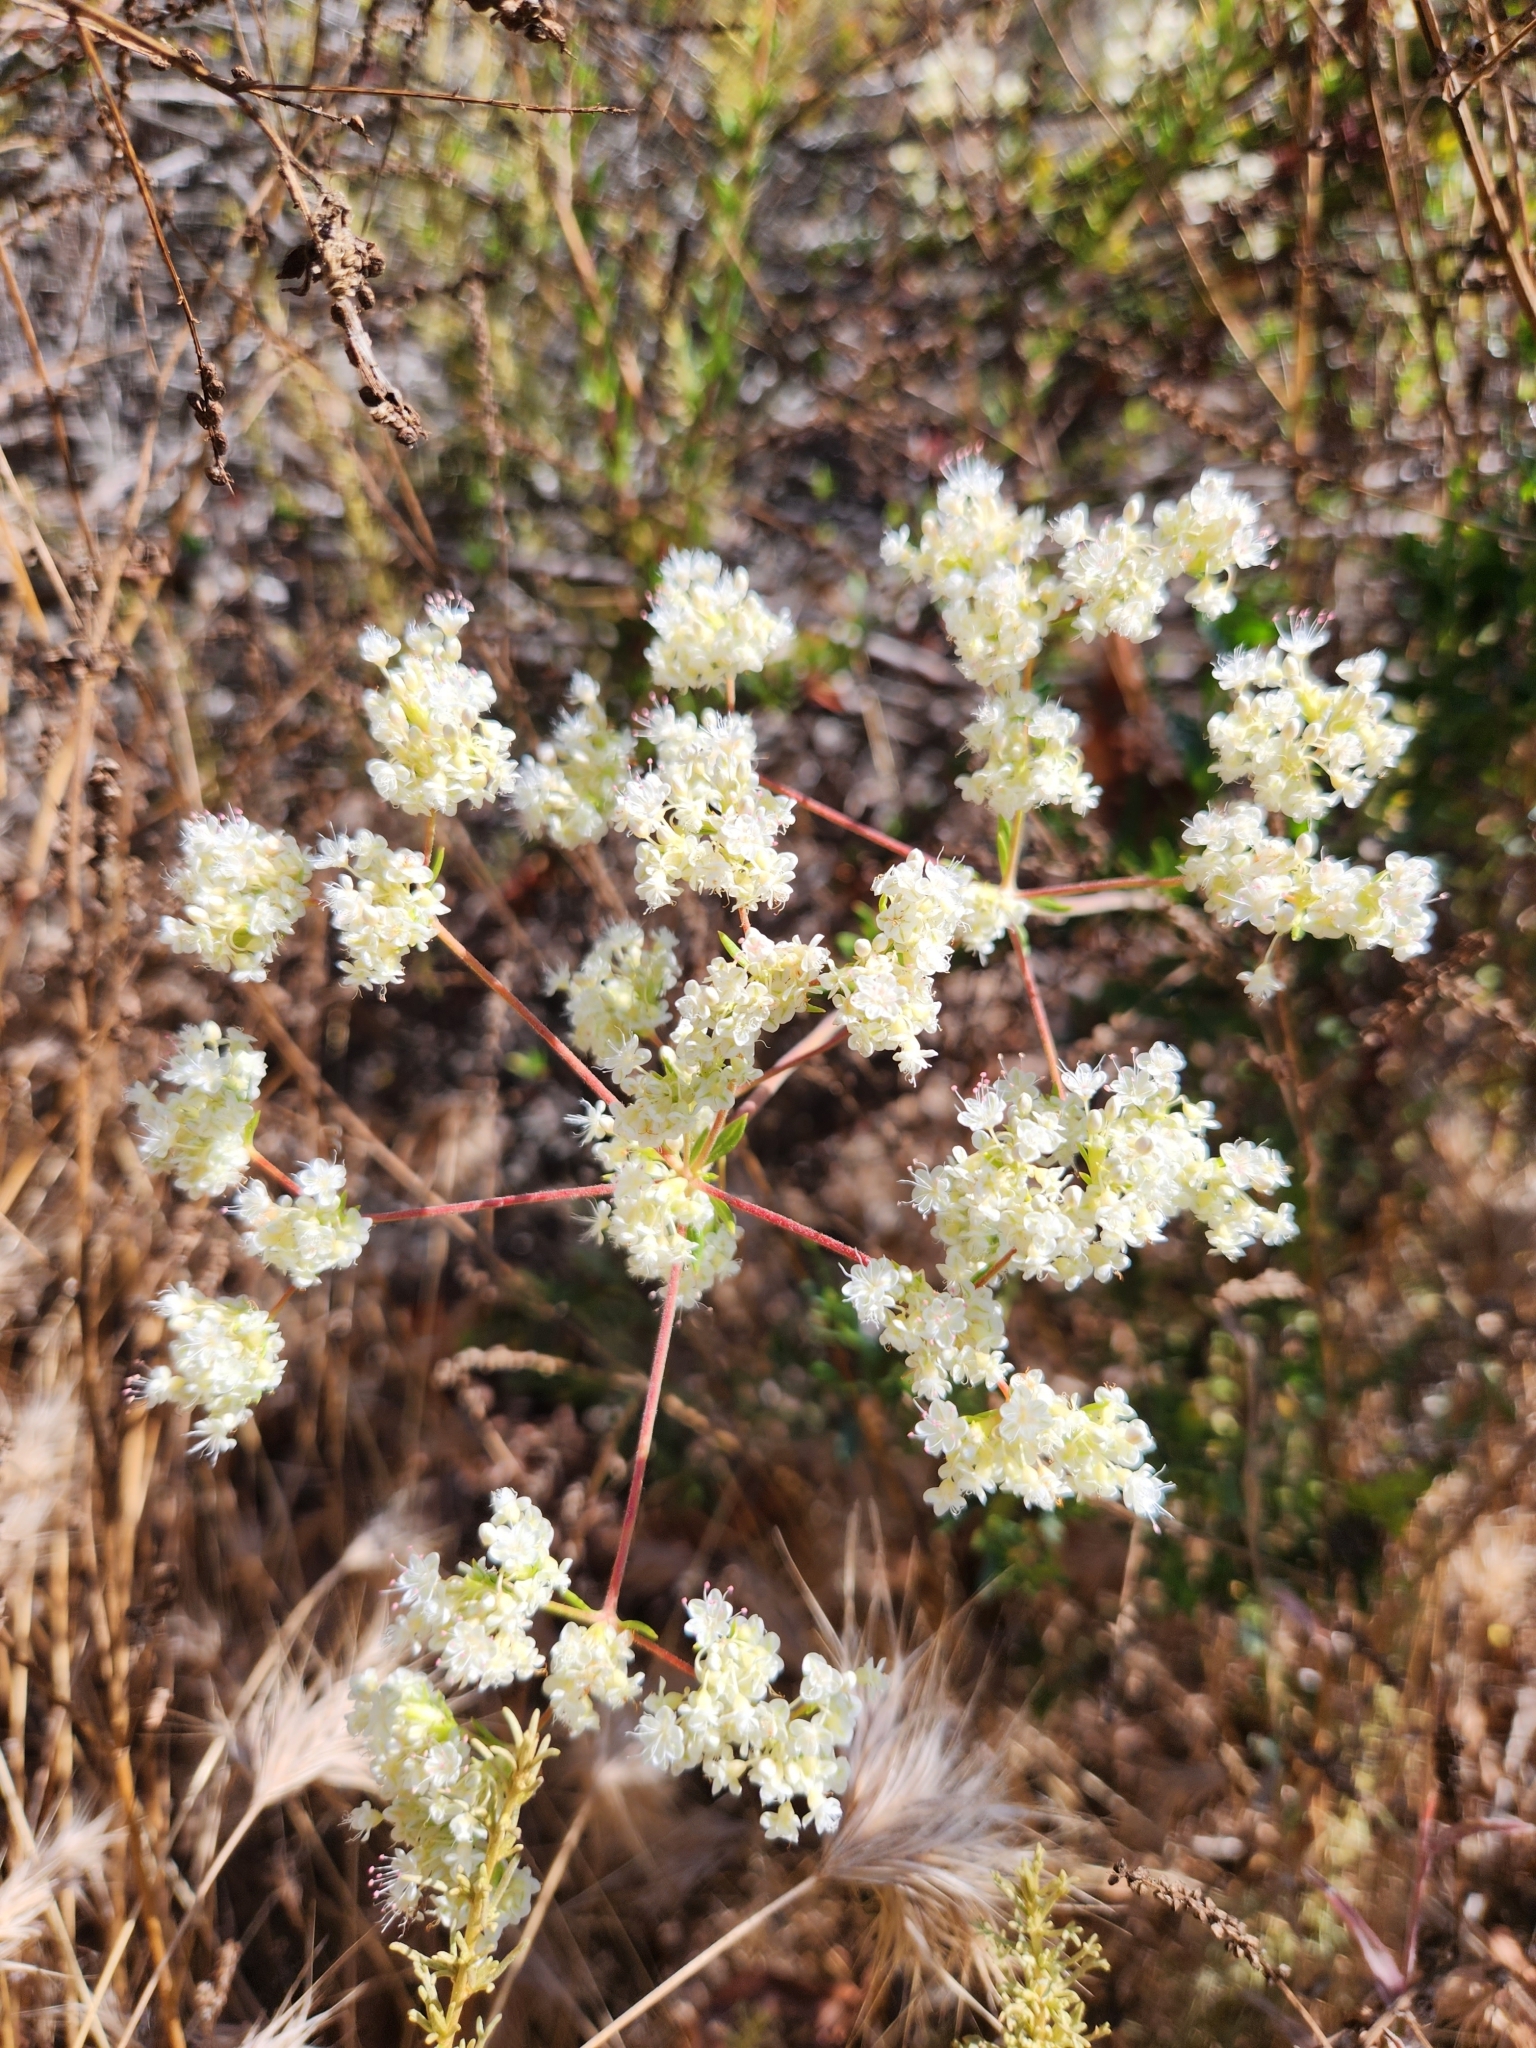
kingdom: Plantae
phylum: Tracheophyta
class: Magnoliopsida
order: Caryophyllales
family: Polygonaceae
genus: Eriogonum
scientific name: Eriogonum fasciculatum
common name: California wild buckwheat
